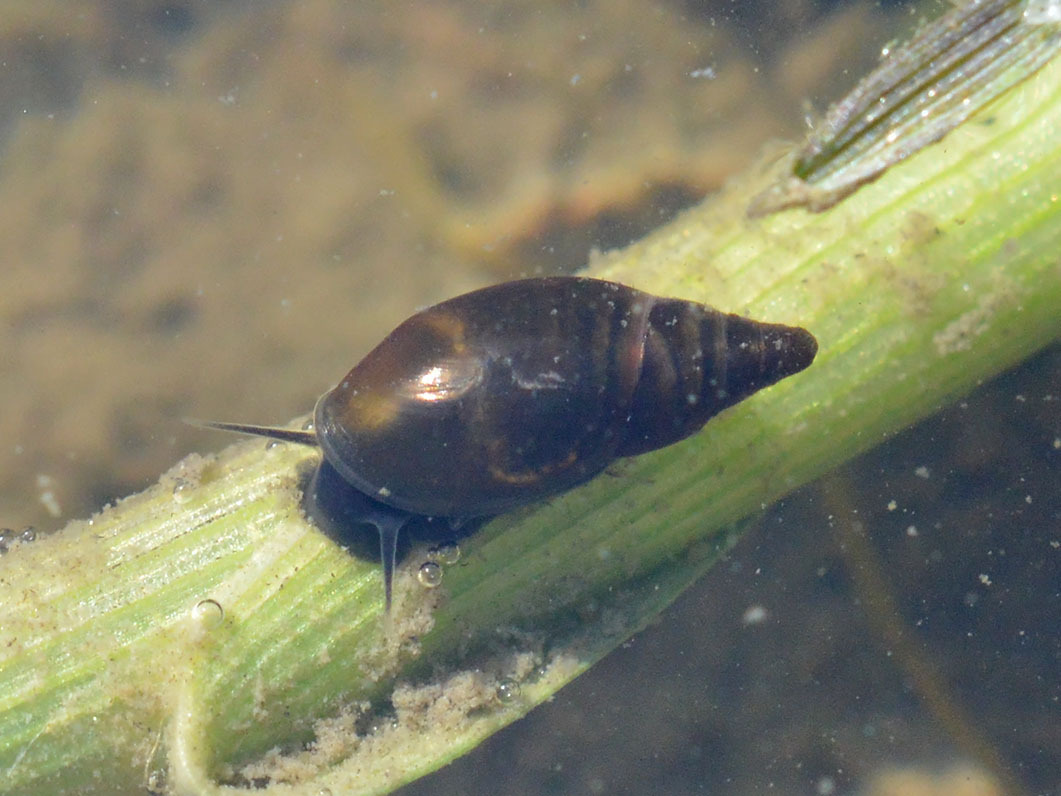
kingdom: Animalia
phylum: Mollusca
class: Gastropoda
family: Physidae
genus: Aplexa
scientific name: Aplexa hypnorum
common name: Moss bladder snail
